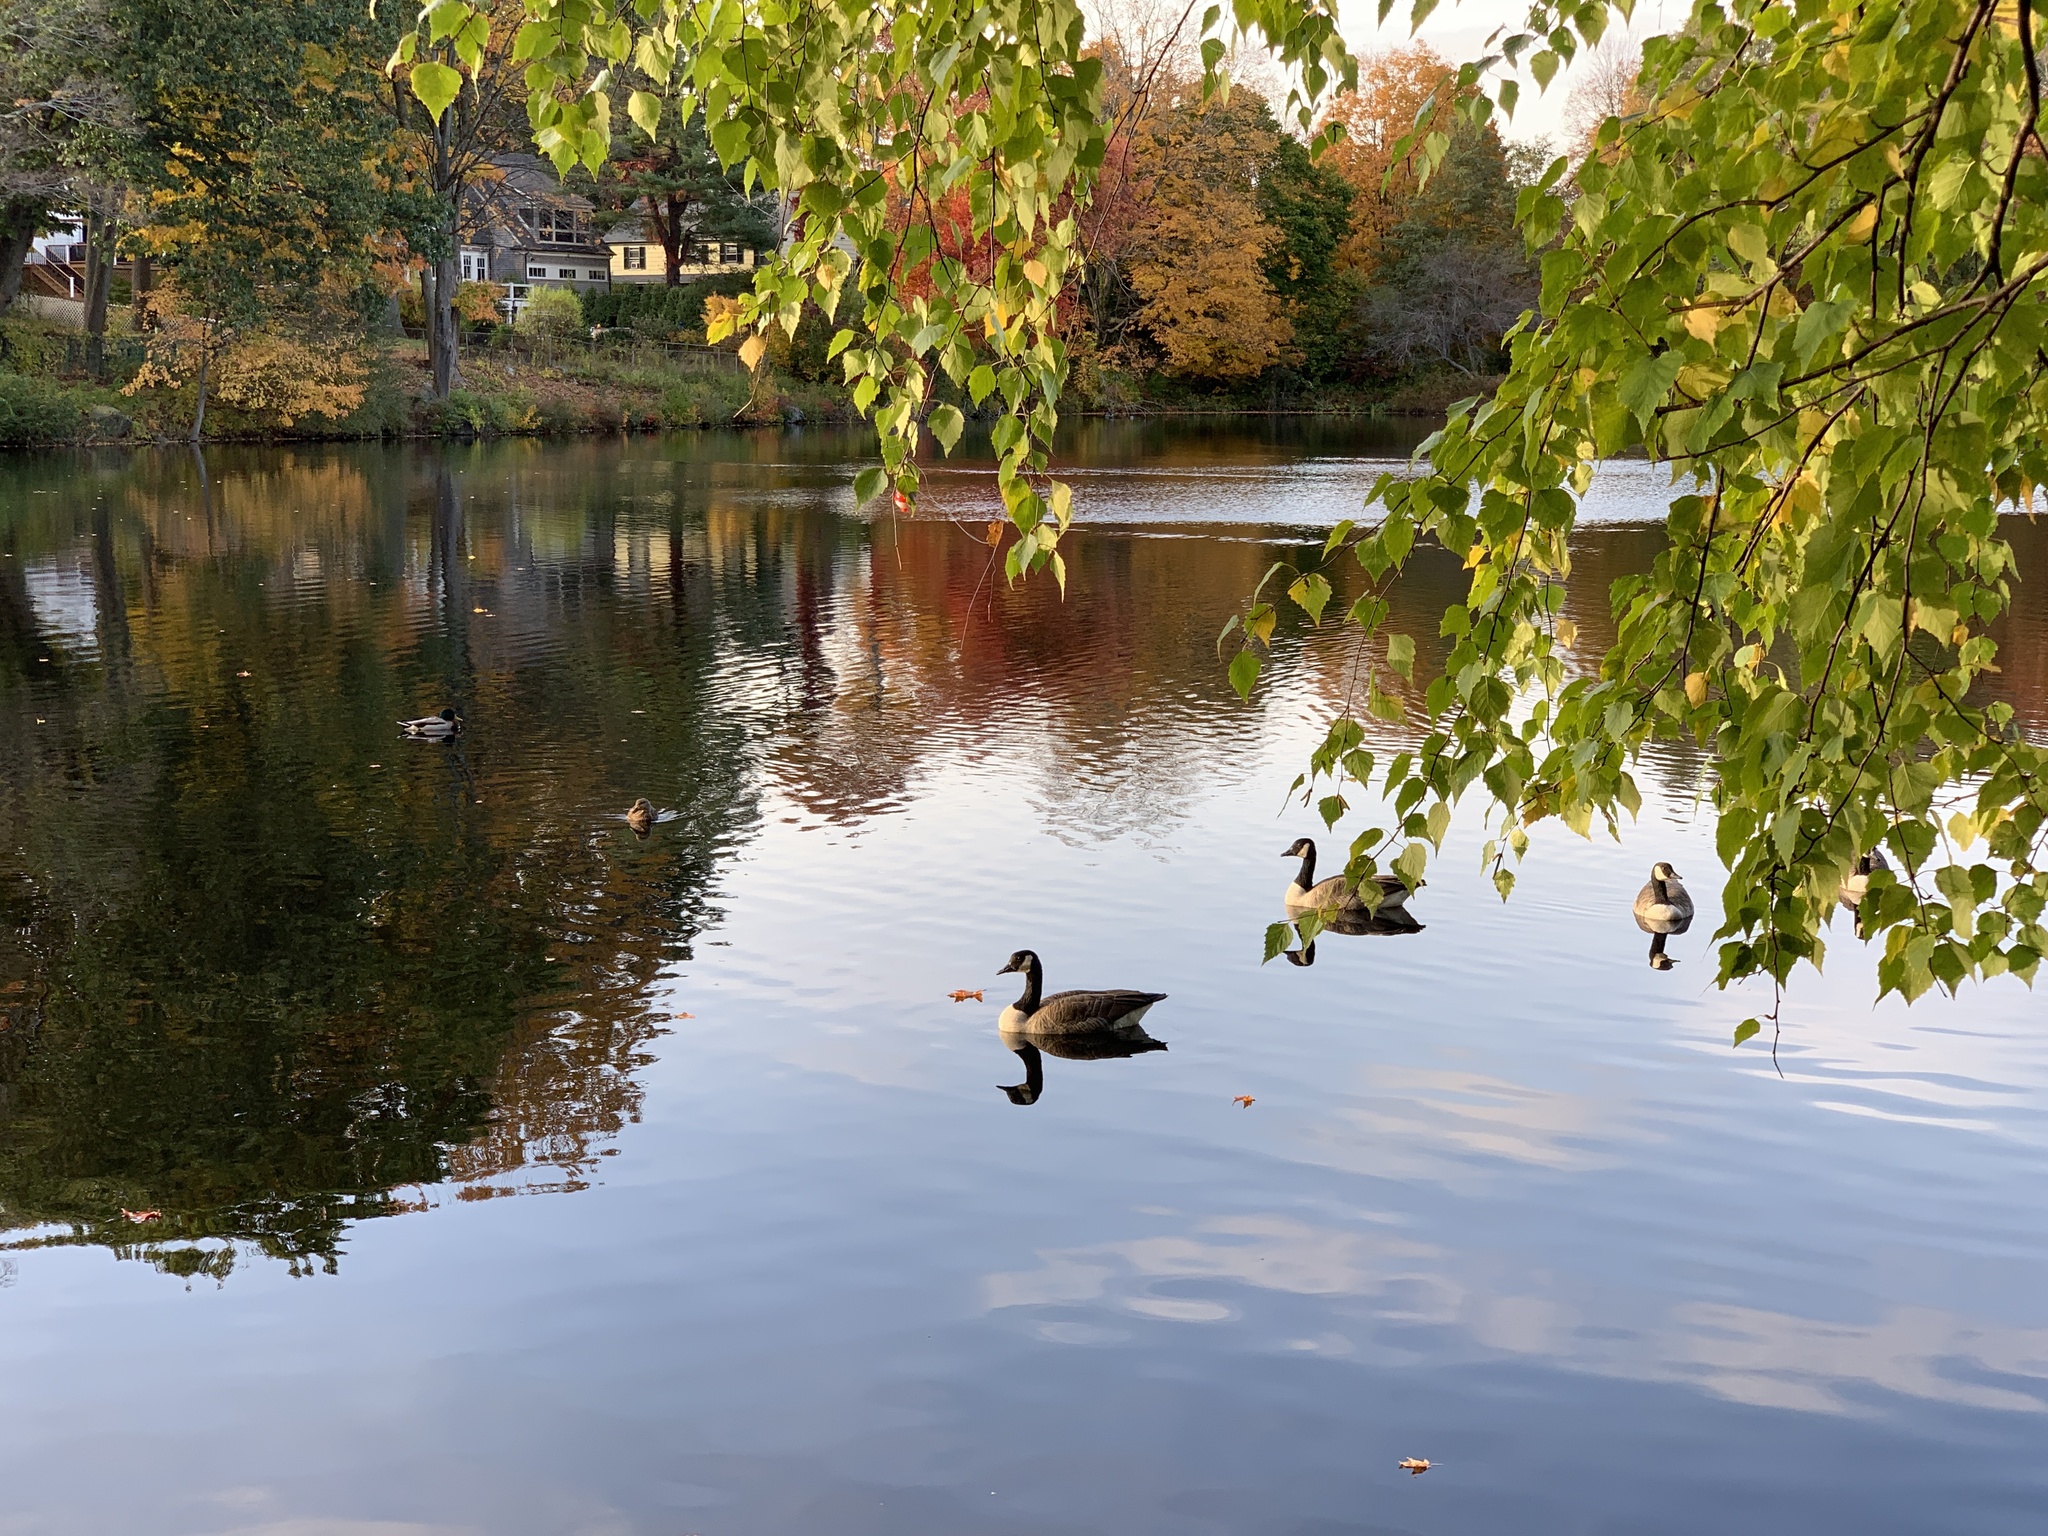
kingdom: Animalia
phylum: Chordata
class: Aves
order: Anseriformes
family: Anatidae
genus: Branta
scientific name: Branta canadensis
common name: Canada goose
